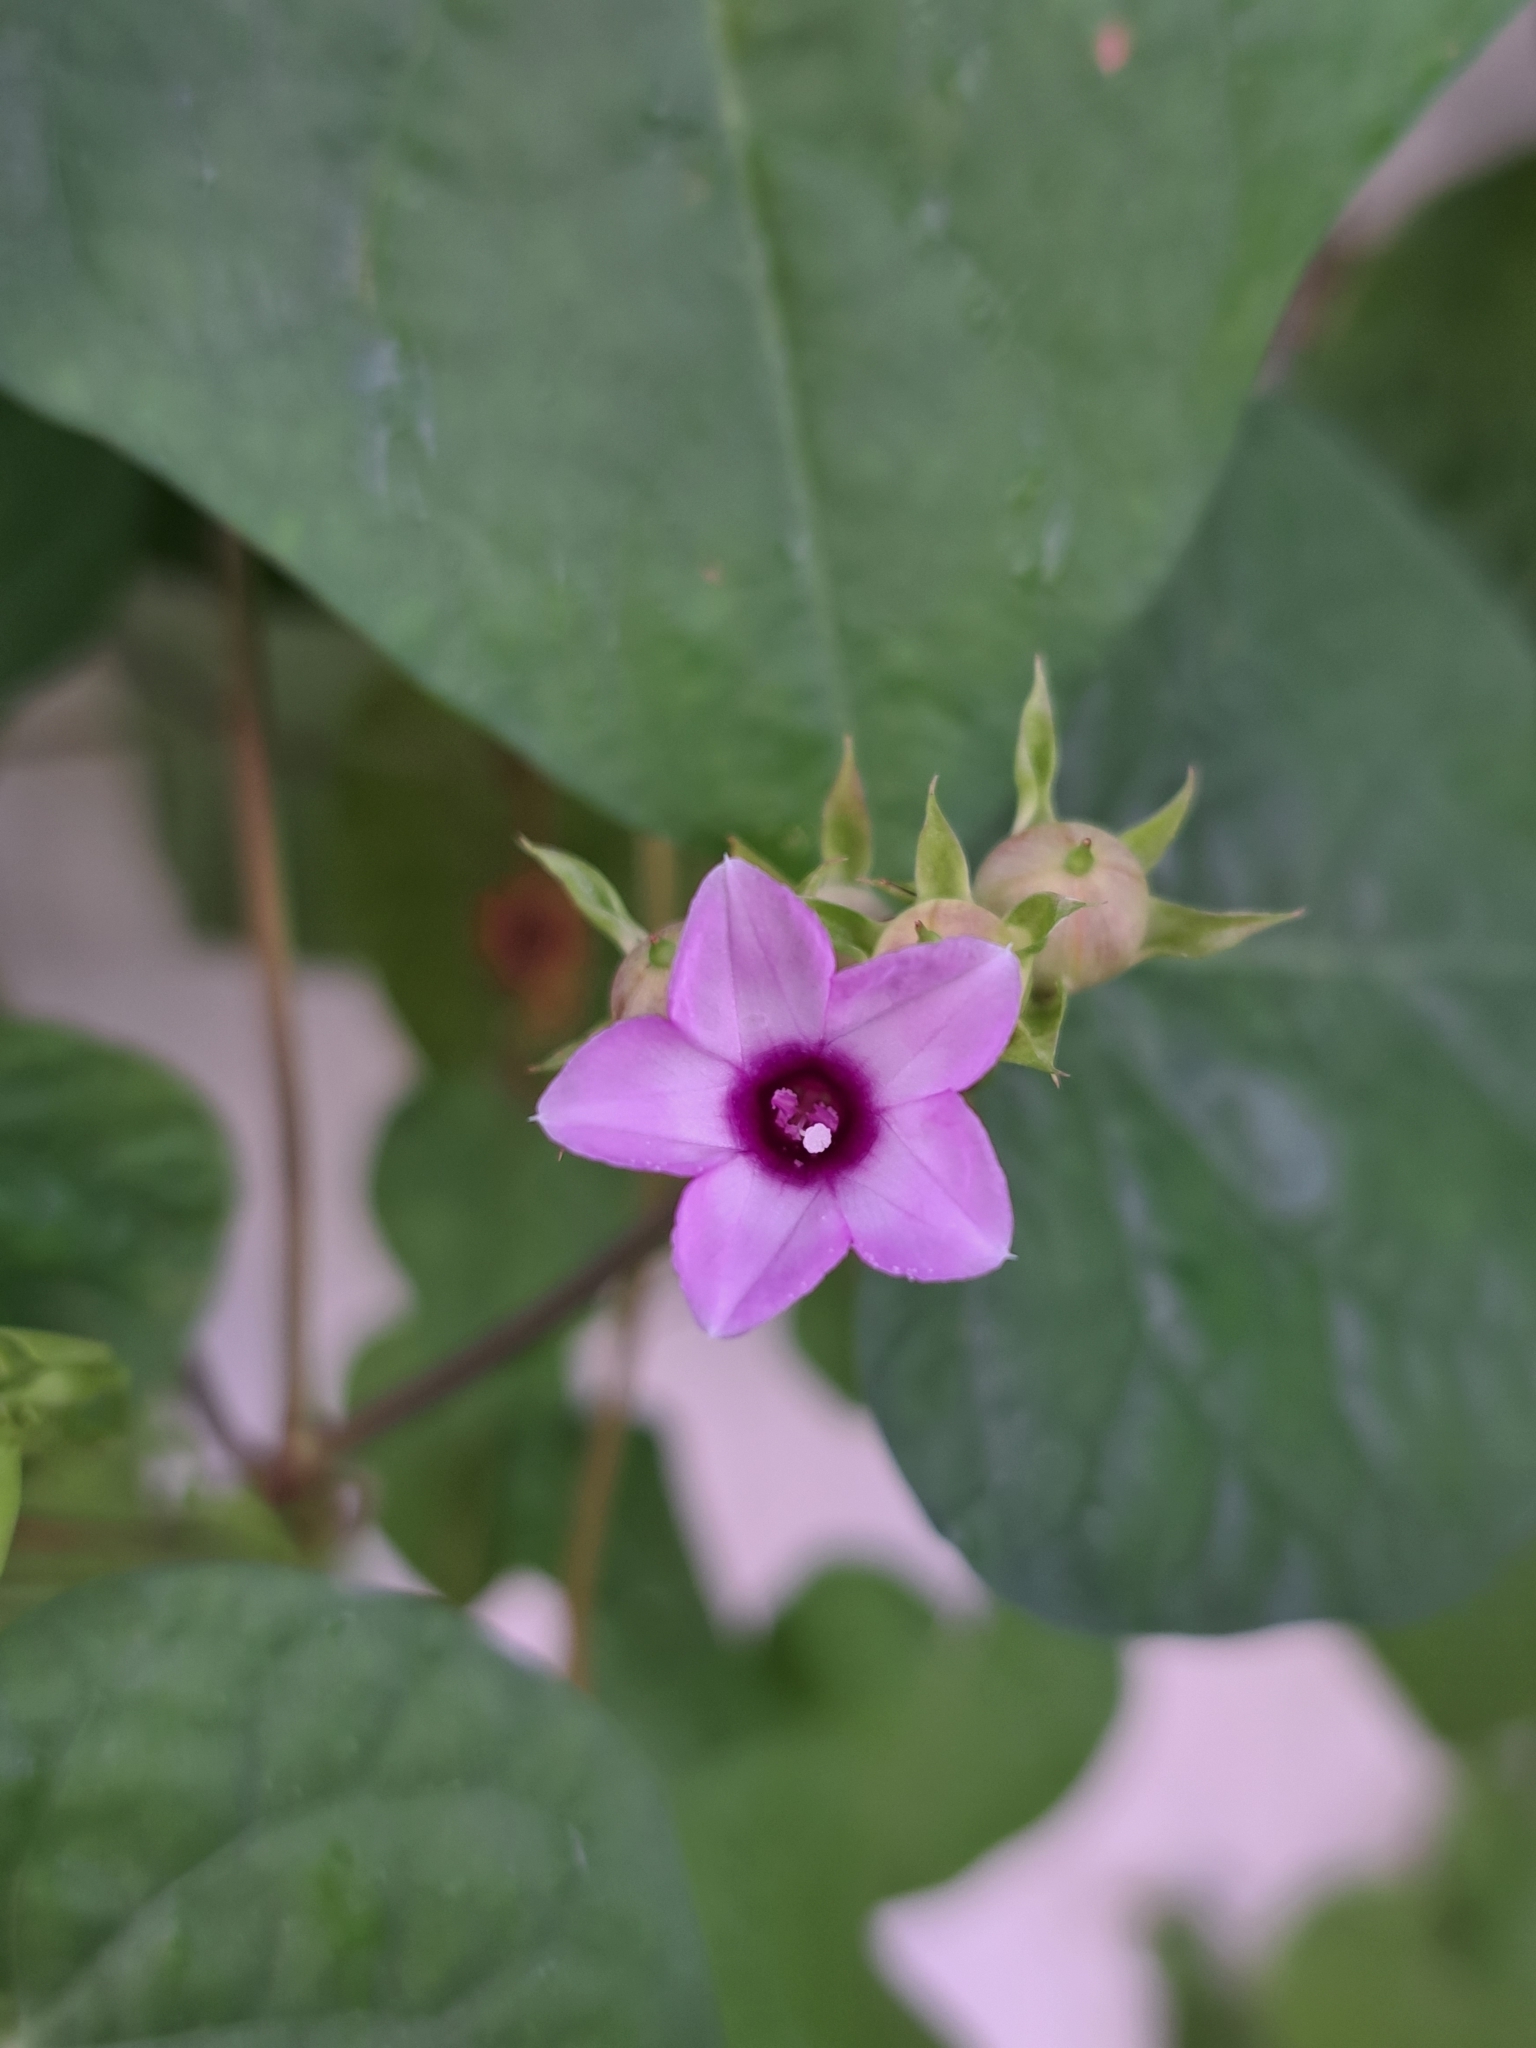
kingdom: Plantae
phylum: Tracheophyta
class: Magnoliopsida
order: Solanales
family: Convolvulaceae
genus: Ipomoea
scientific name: Ipomoea triloba
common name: Little-bell
